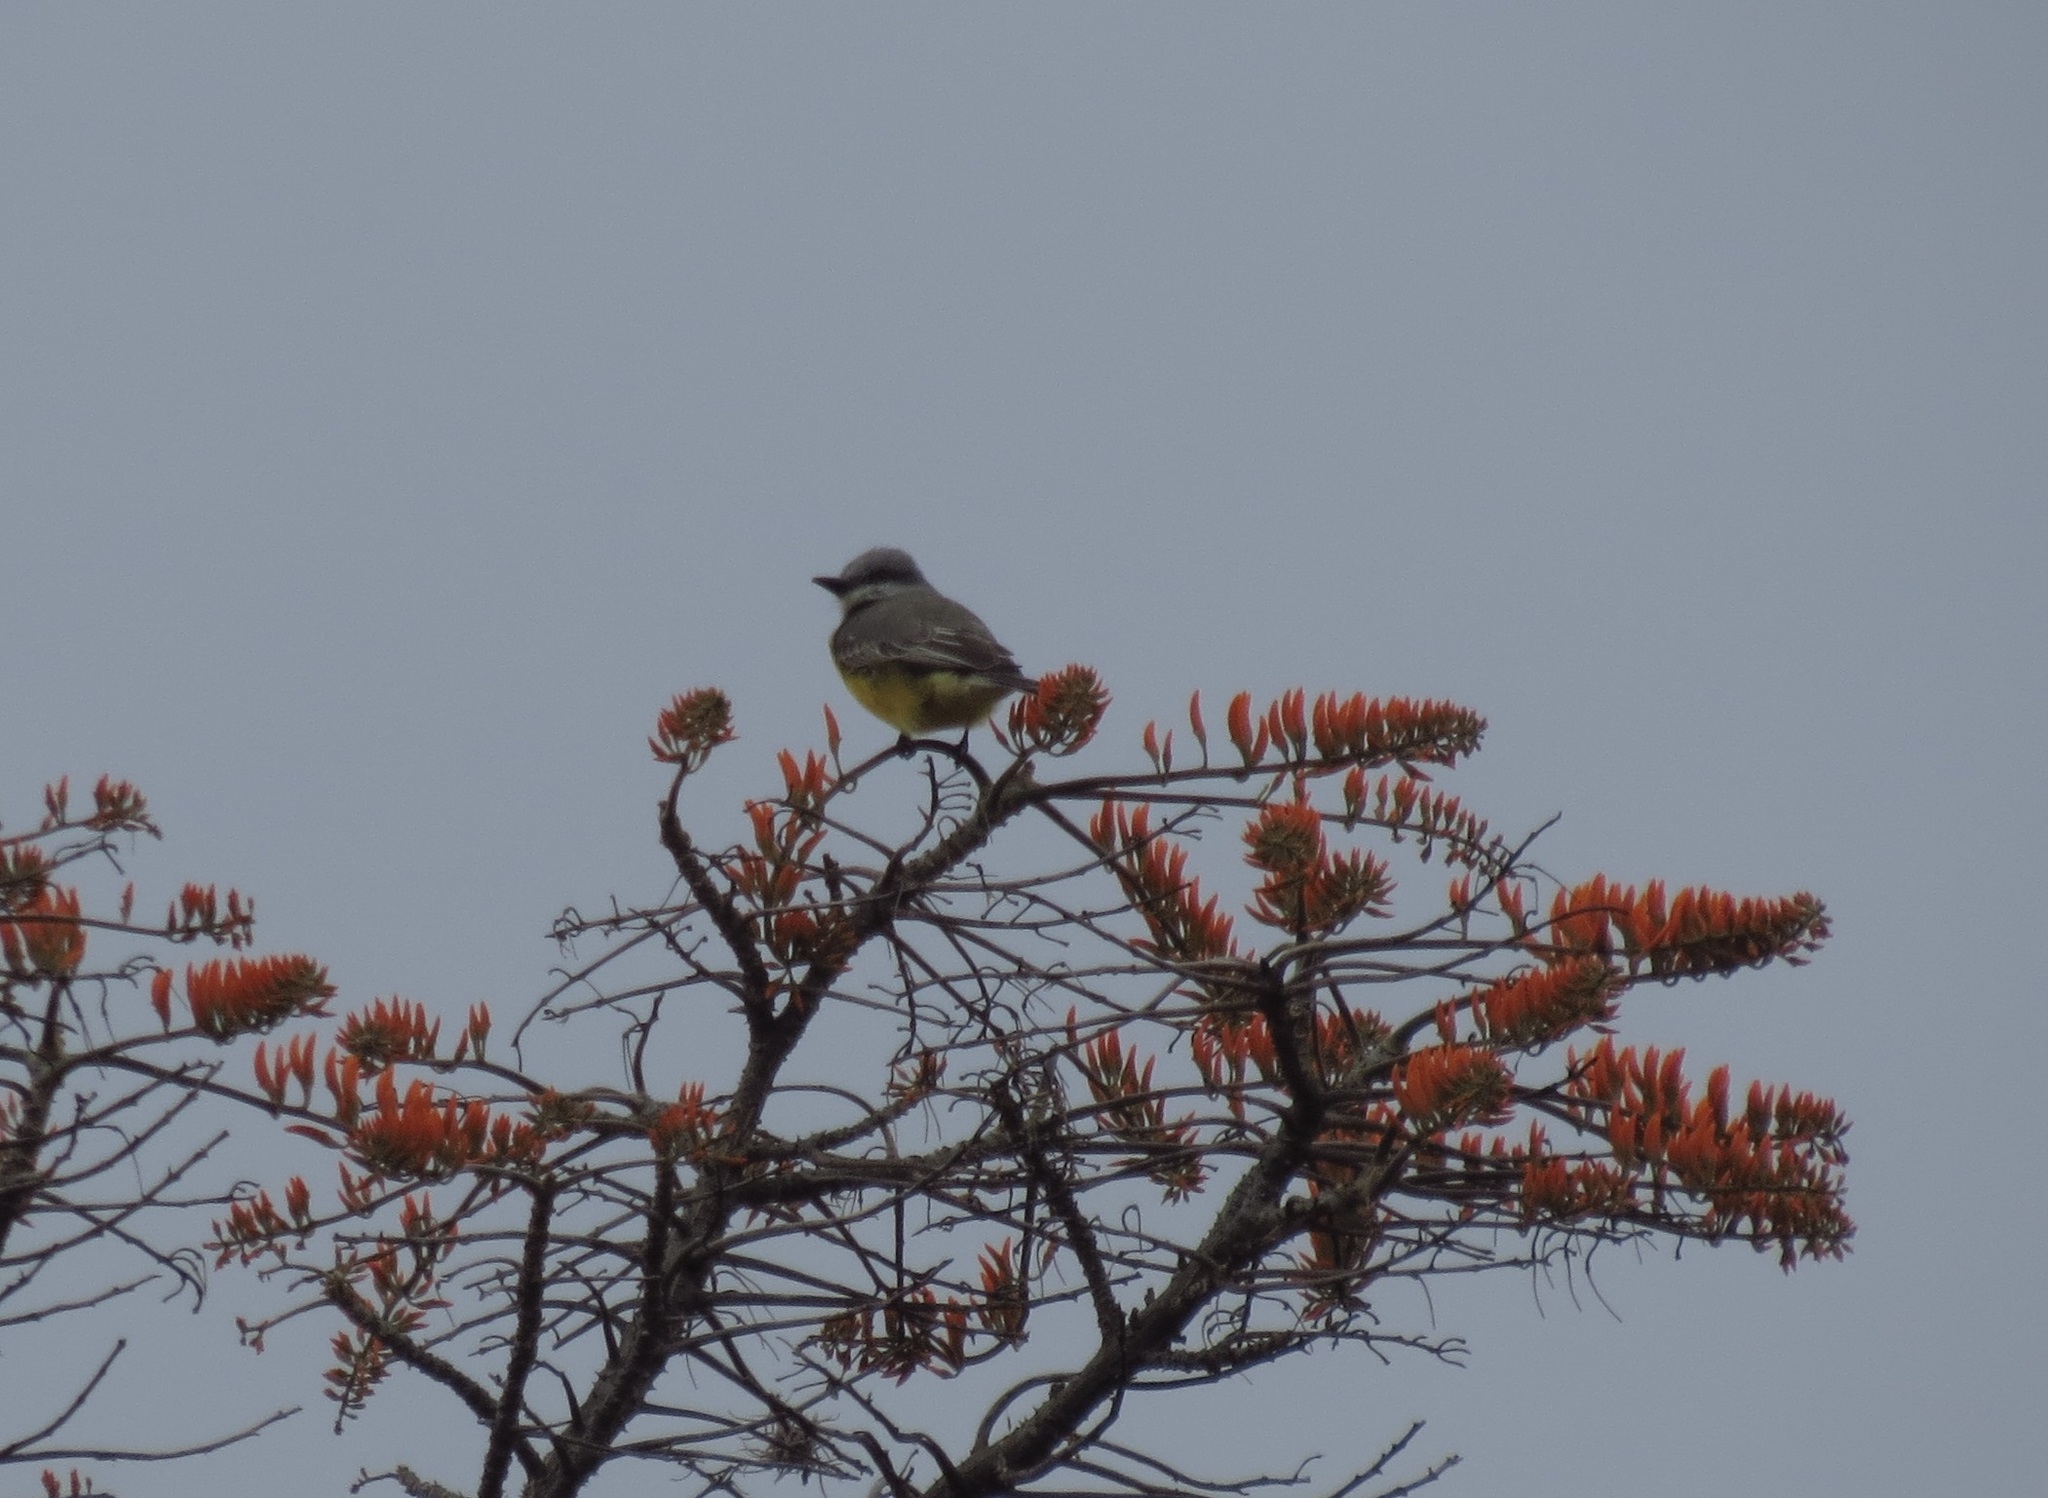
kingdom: Animalia
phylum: Chordata
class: Aves
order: Passeriformes
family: Tyrannidae
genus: Tyrannus
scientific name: Tyrannus verticalis
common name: Western kingbird
